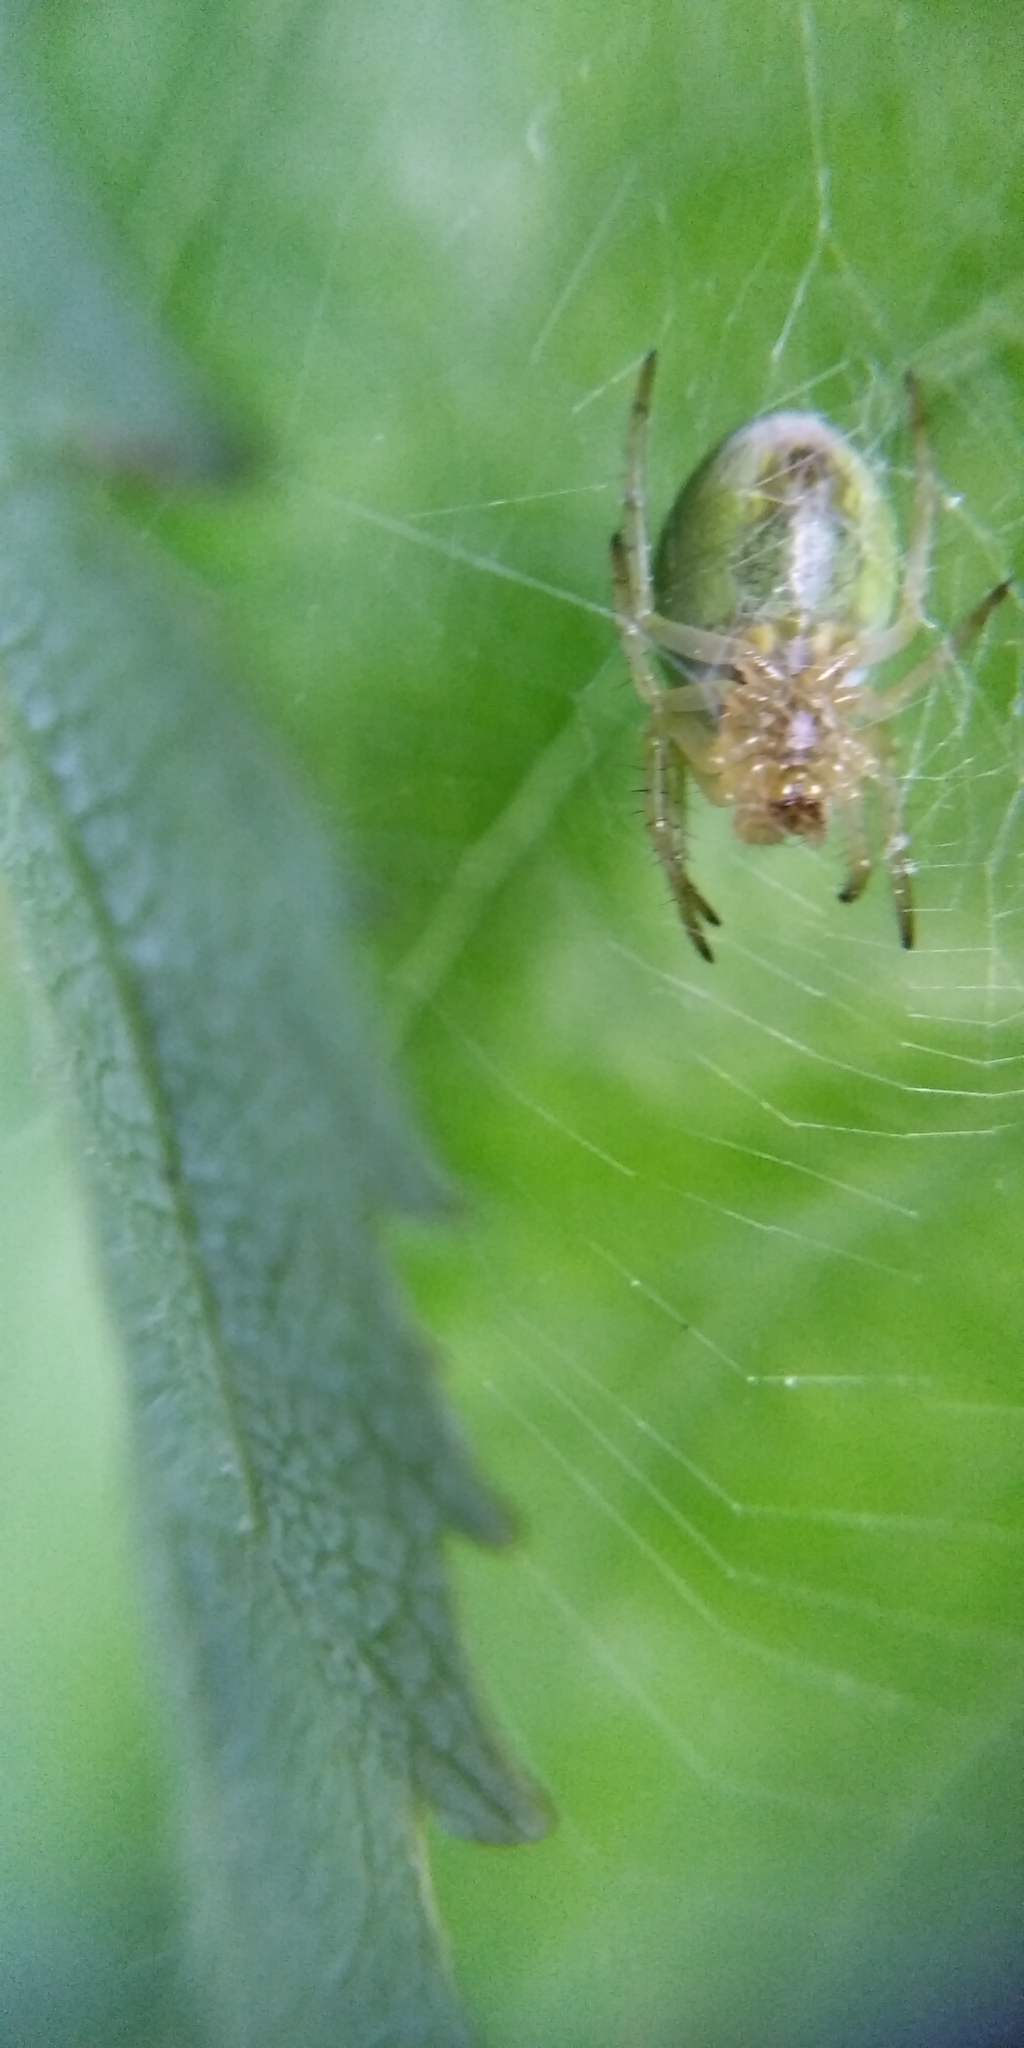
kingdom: Animalia
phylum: Arthropoda
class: Arachnida
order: Araneae
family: Araneidae
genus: Araniella
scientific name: Araniella cucurbitina
